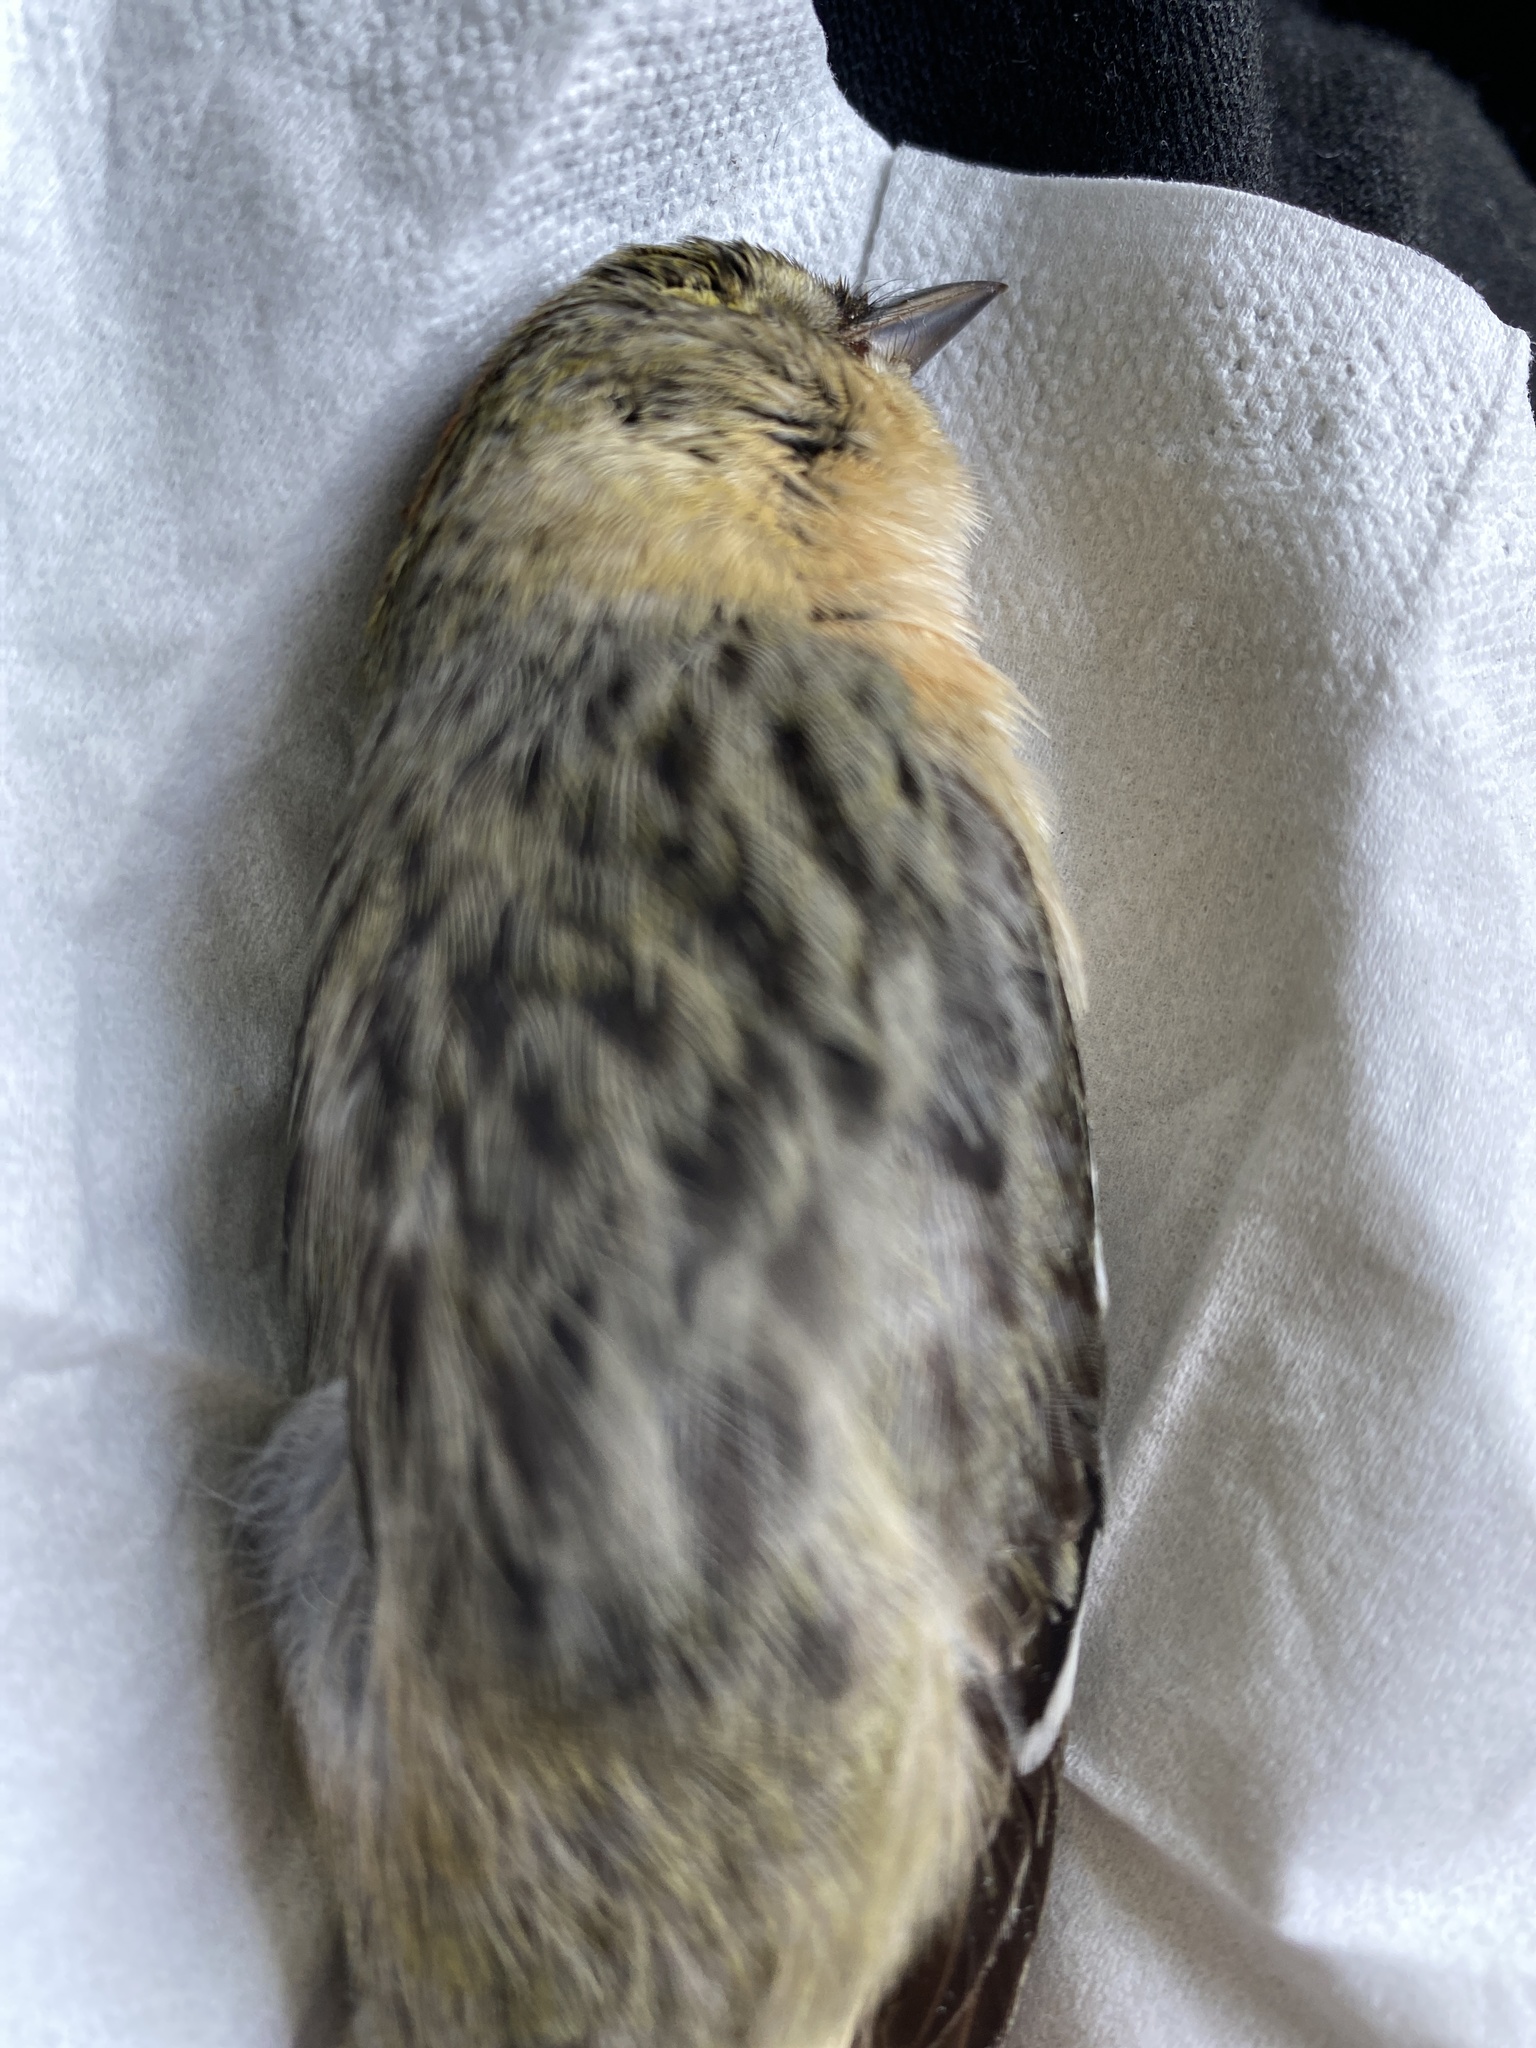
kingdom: Animalia
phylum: Chordata
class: Aves
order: Passeriformes
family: Parulidae
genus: Setophaga
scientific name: Setophaga castanea
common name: Bay-breasted warbler
